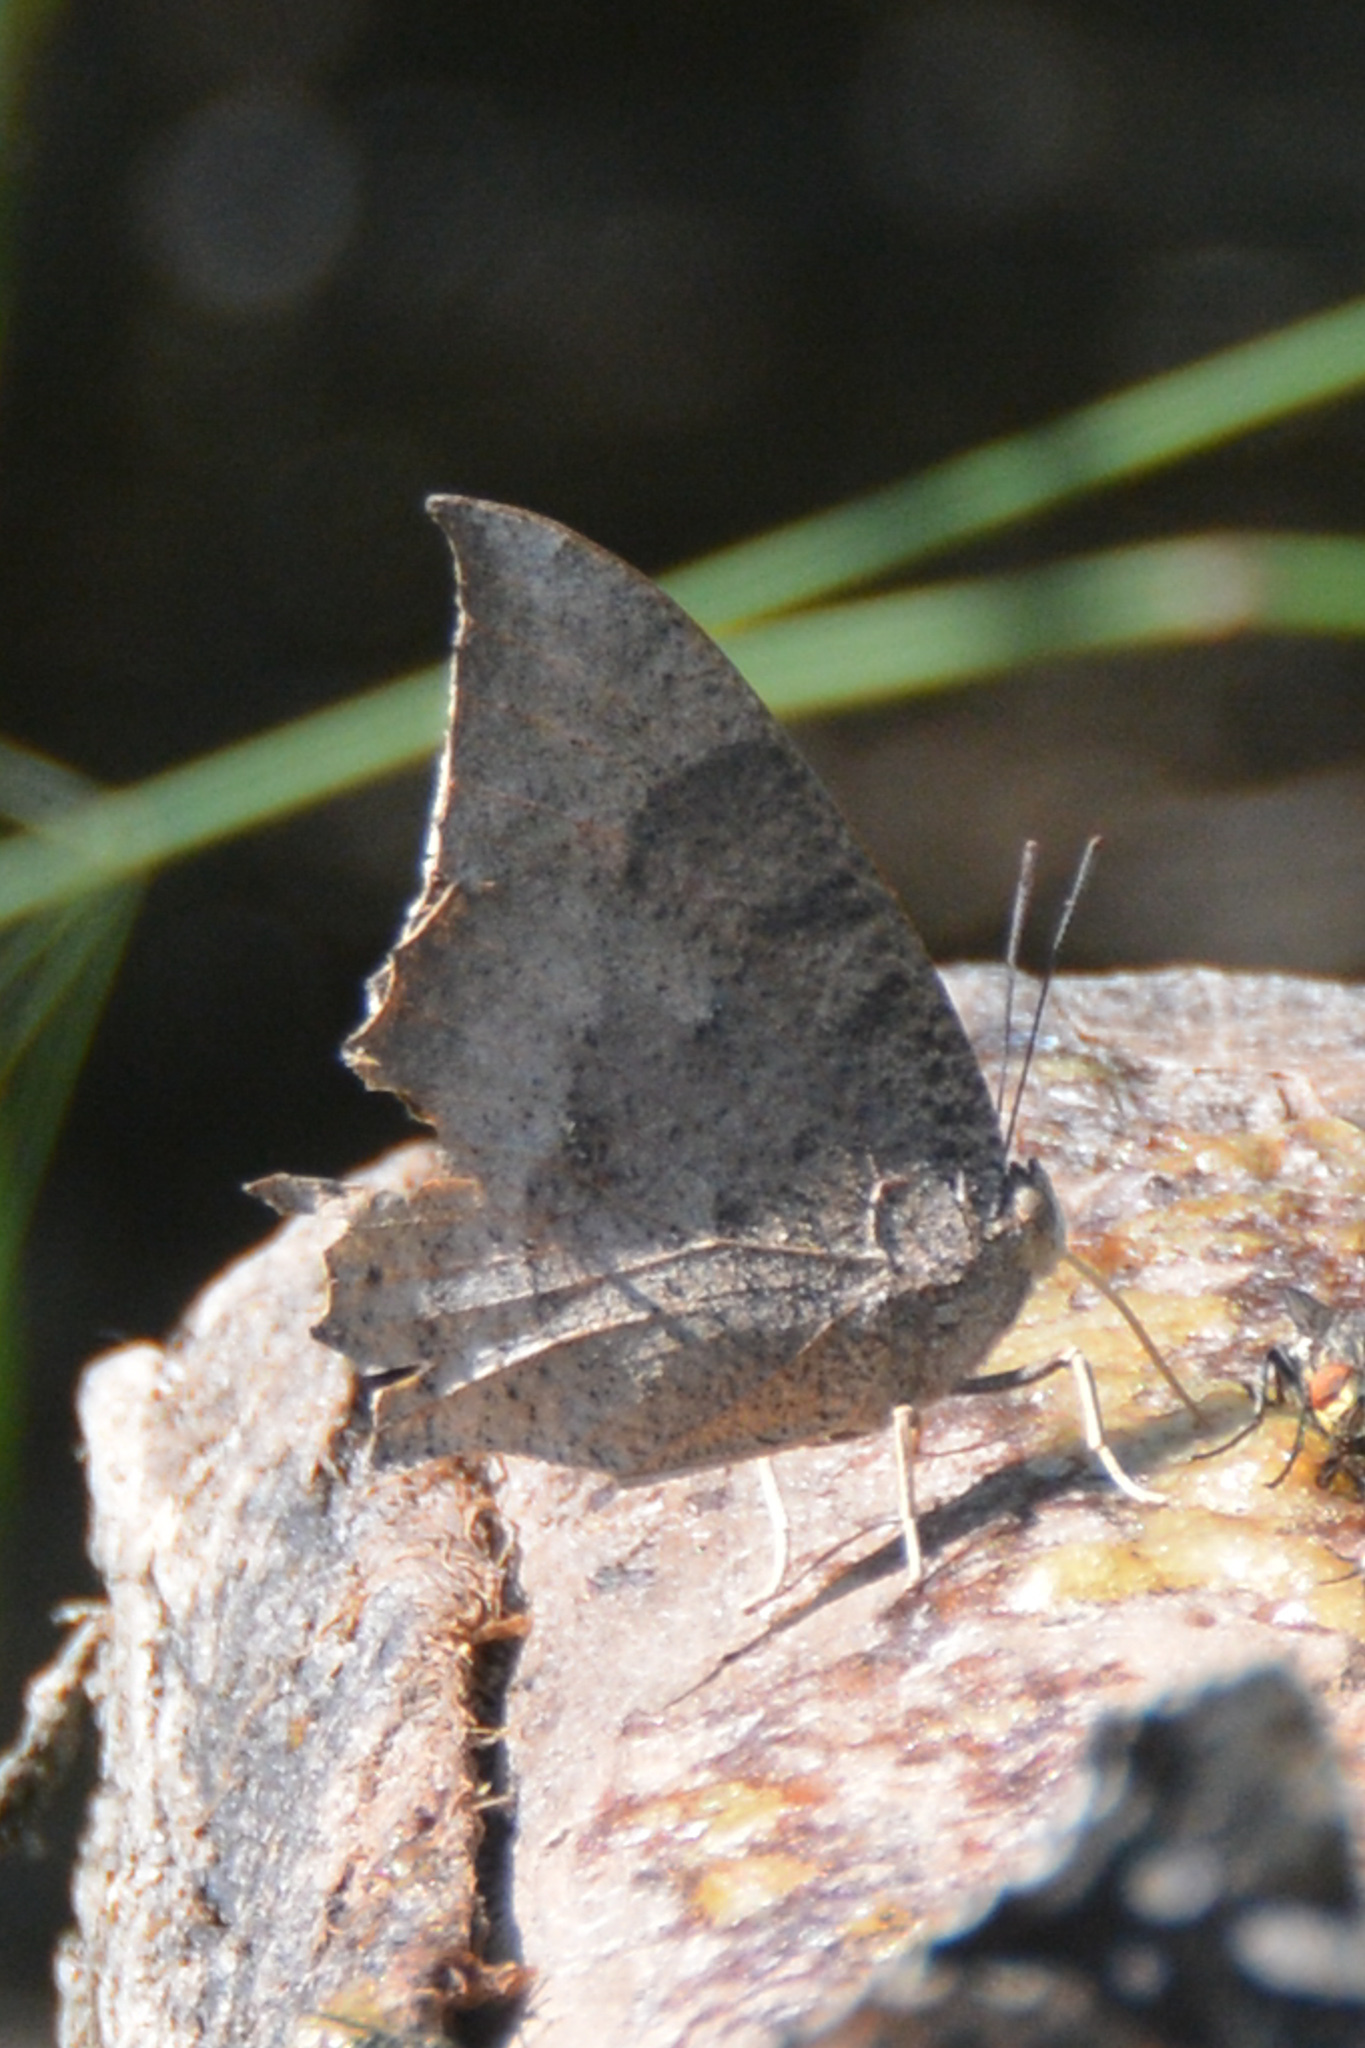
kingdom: Animalia
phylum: Arthropoda
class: Insecta
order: Lepidoptera
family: Nymphalidae
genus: Anaea
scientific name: Anaea aidea
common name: Tropical leafwing
